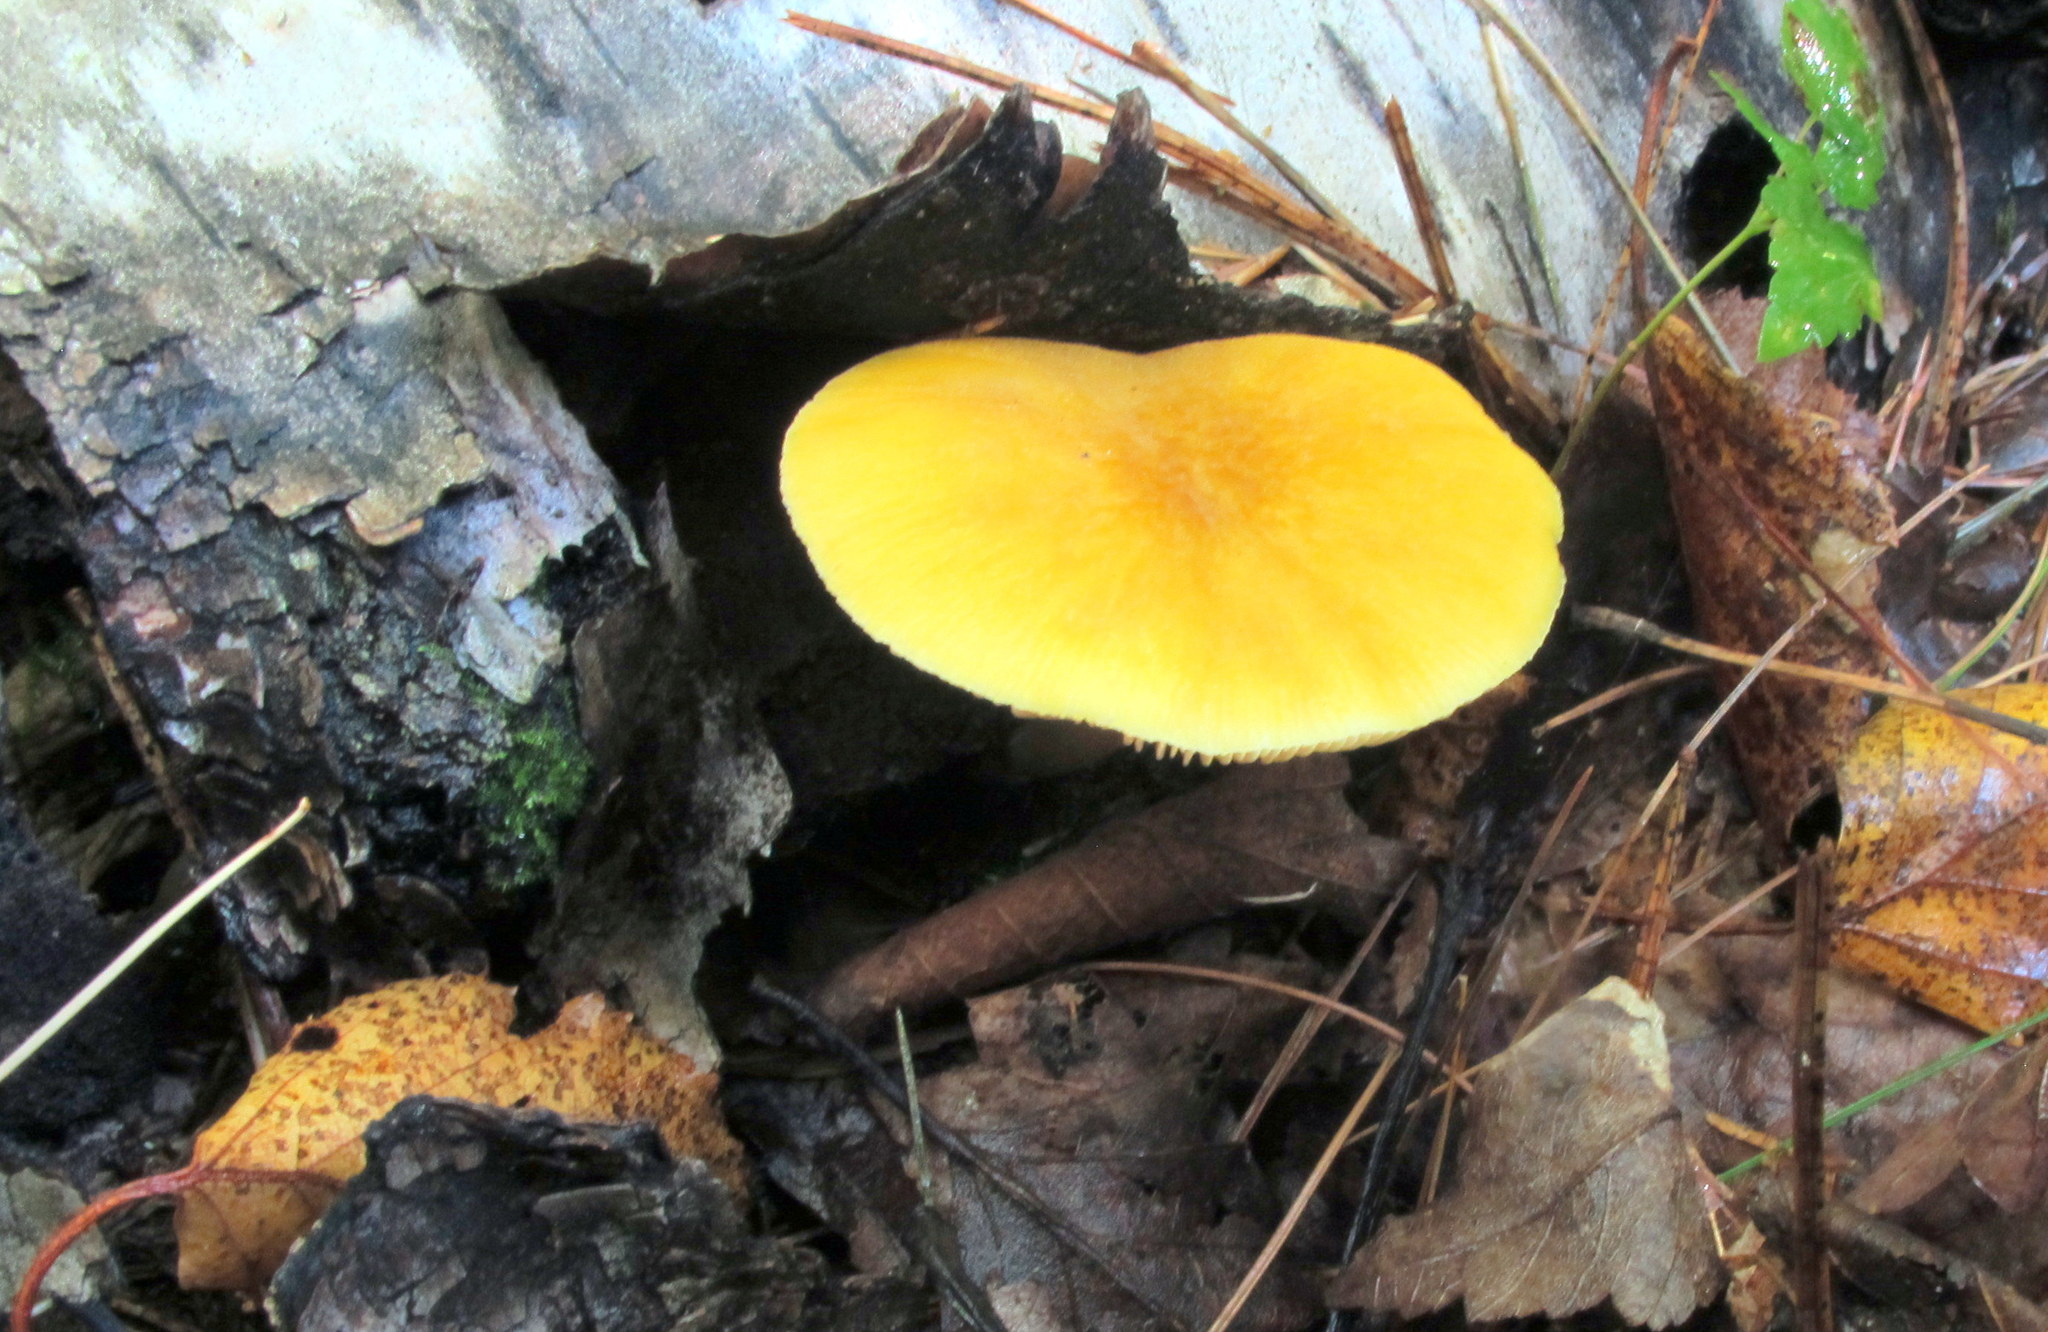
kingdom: Fungi
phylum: Basidiomycota
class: Agaricomycetes
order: Agaricales
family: Pluteaceae
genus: Pluteus
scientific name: Pluteus chrysophaeus
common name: Yellow shield
